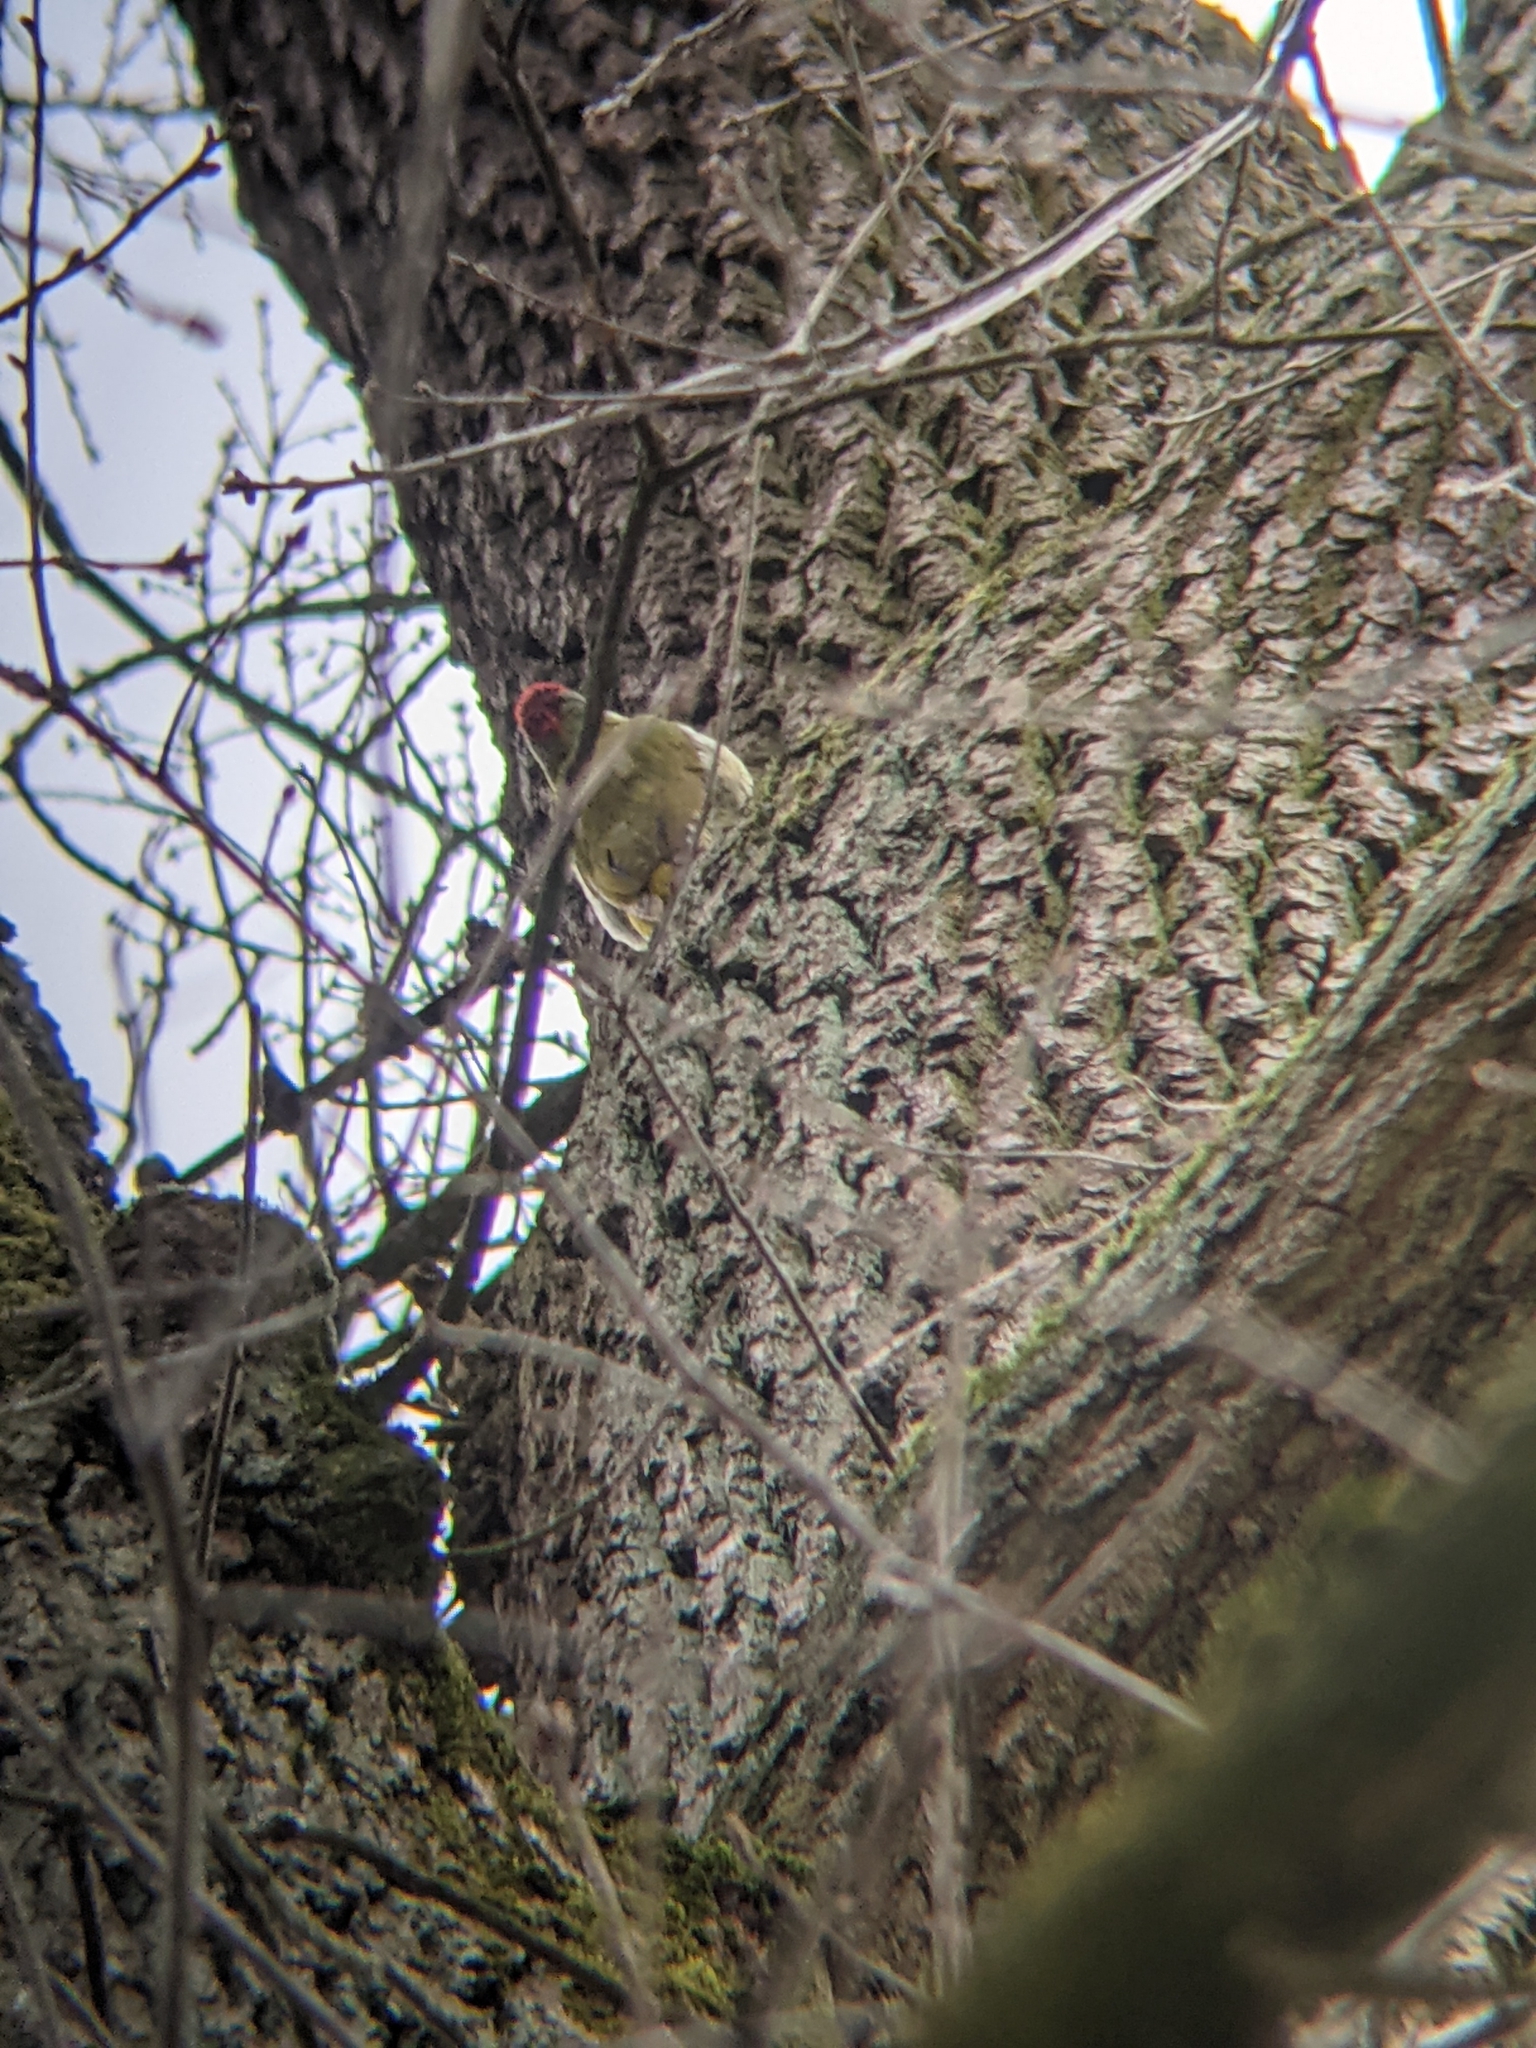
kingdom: Animalia
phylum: Chordata
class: Aves
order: Piciformes
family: Picidae
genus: Picus
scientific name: Picus viridis
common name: European green woodpecker
